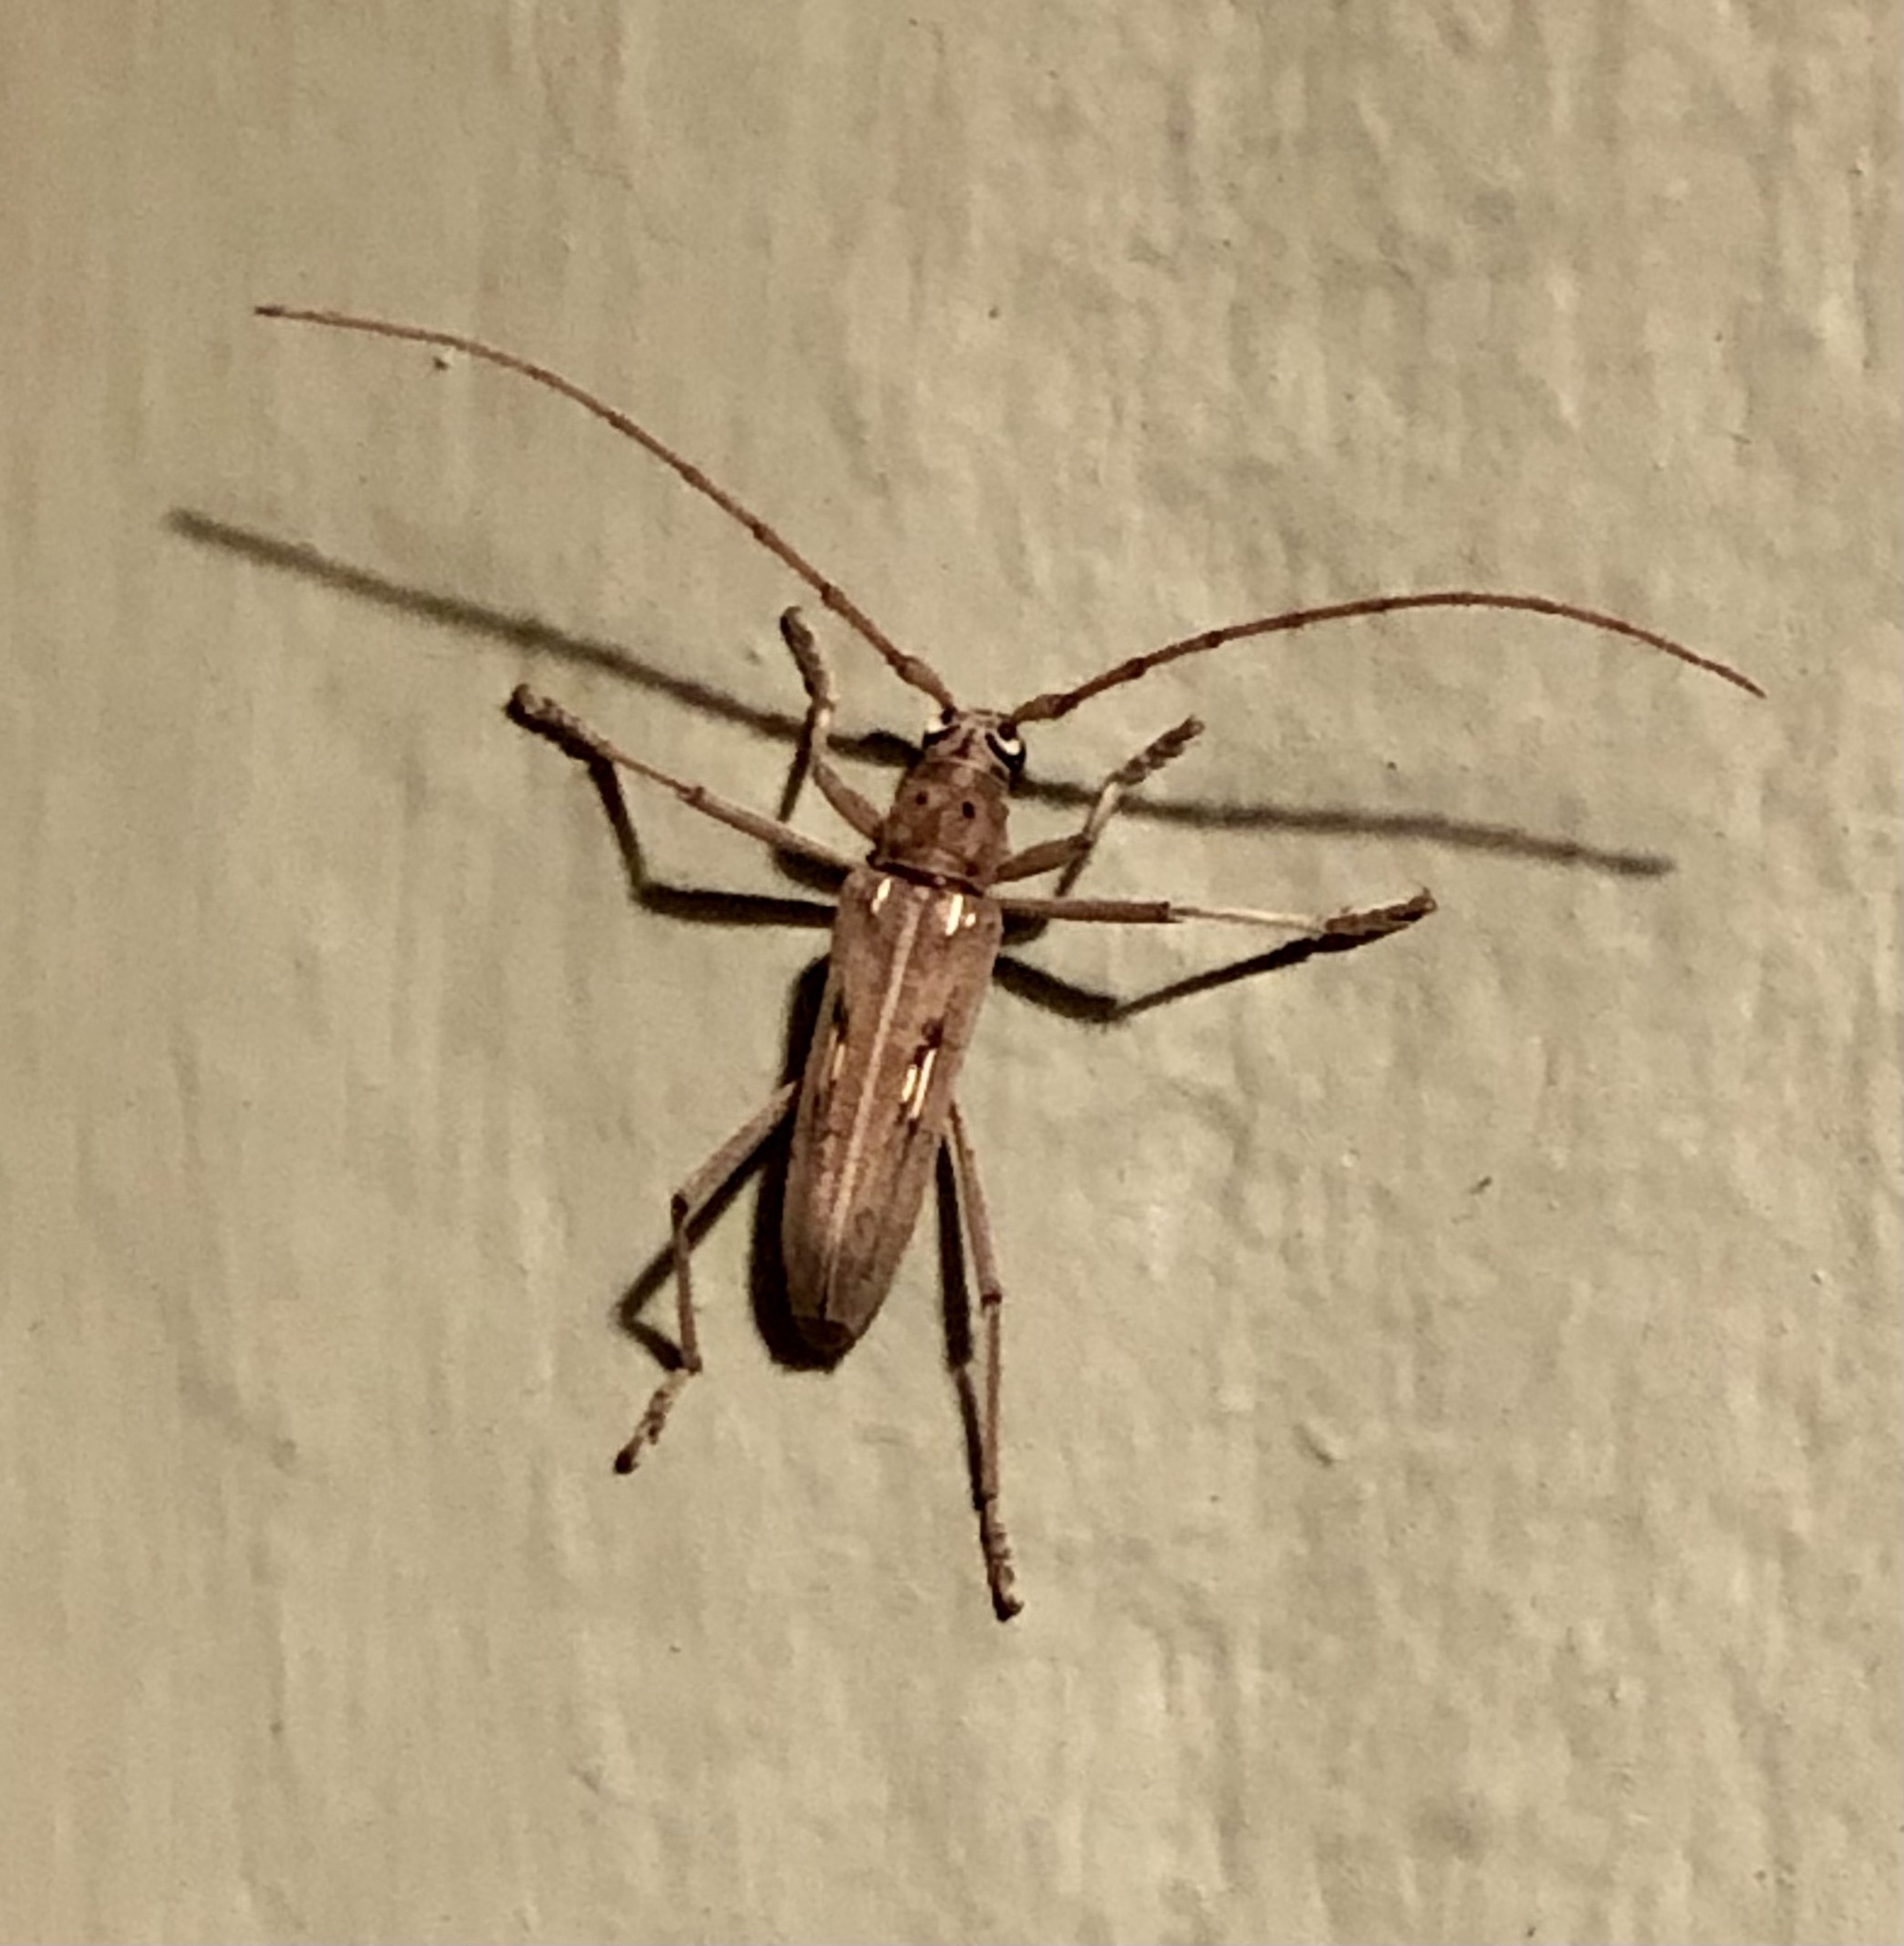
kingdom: Animalia
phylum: Arthropoda
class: Insecta
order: Coleoptera
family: Cerambycidae
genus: Eburia
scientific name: Eburia stigma
